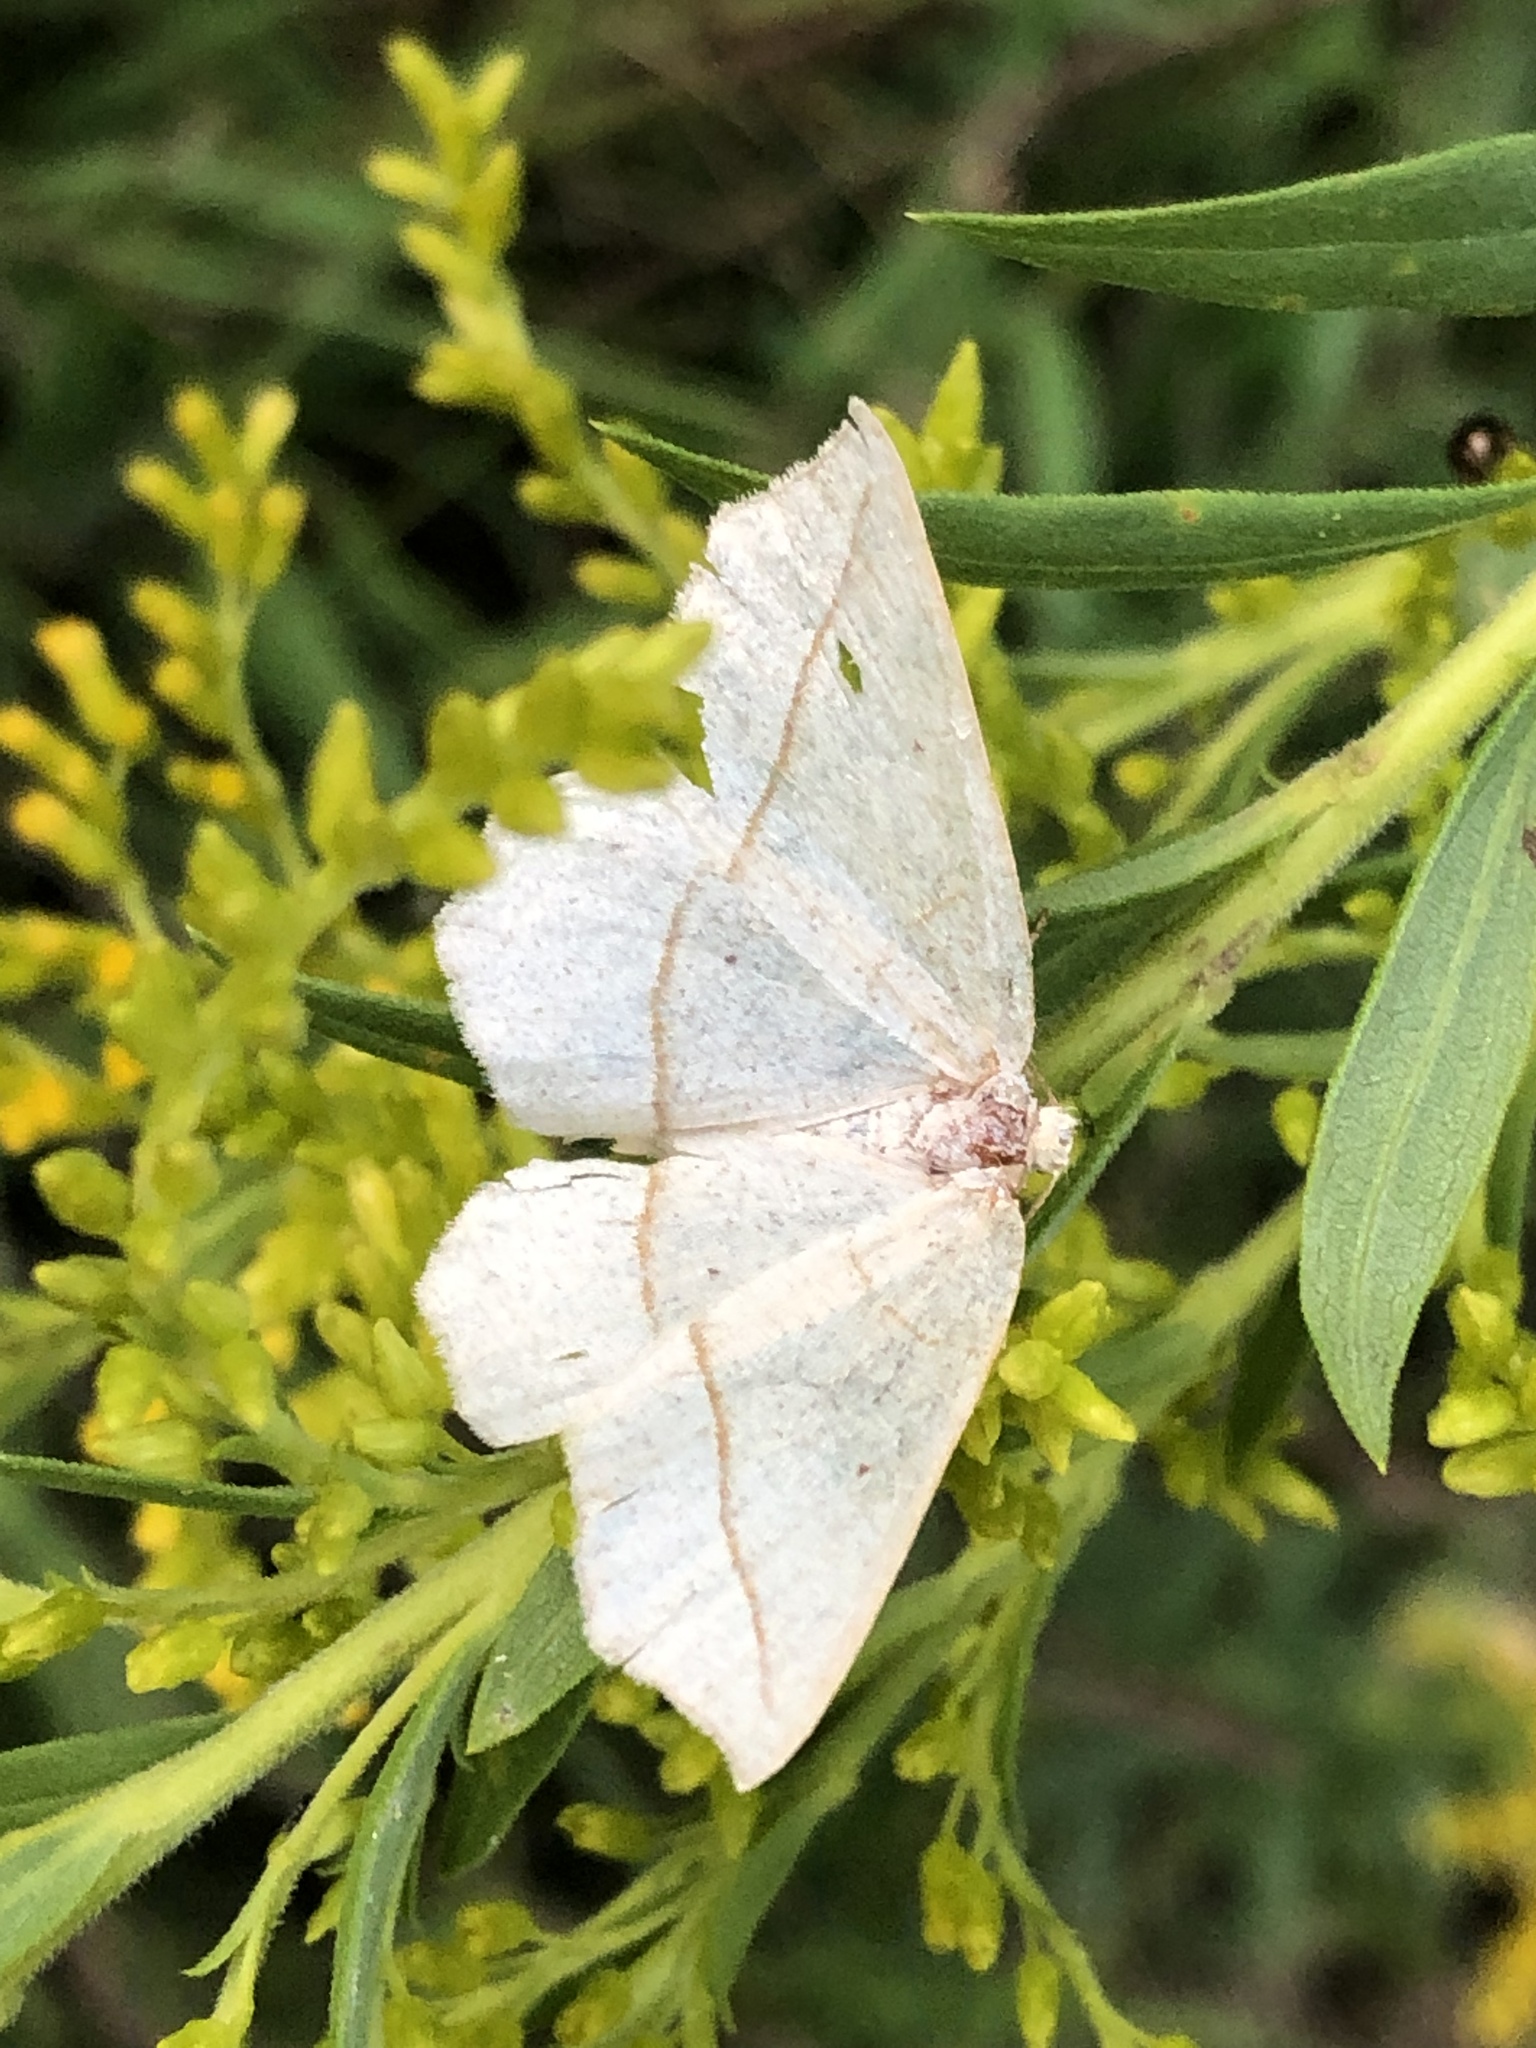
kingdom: Animalia
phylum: Arthropoda
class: Insecta
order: Lepidoptera
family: Geometridae
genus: Eusarca
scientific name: Eusarca confusaria
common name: Confused eusarca
